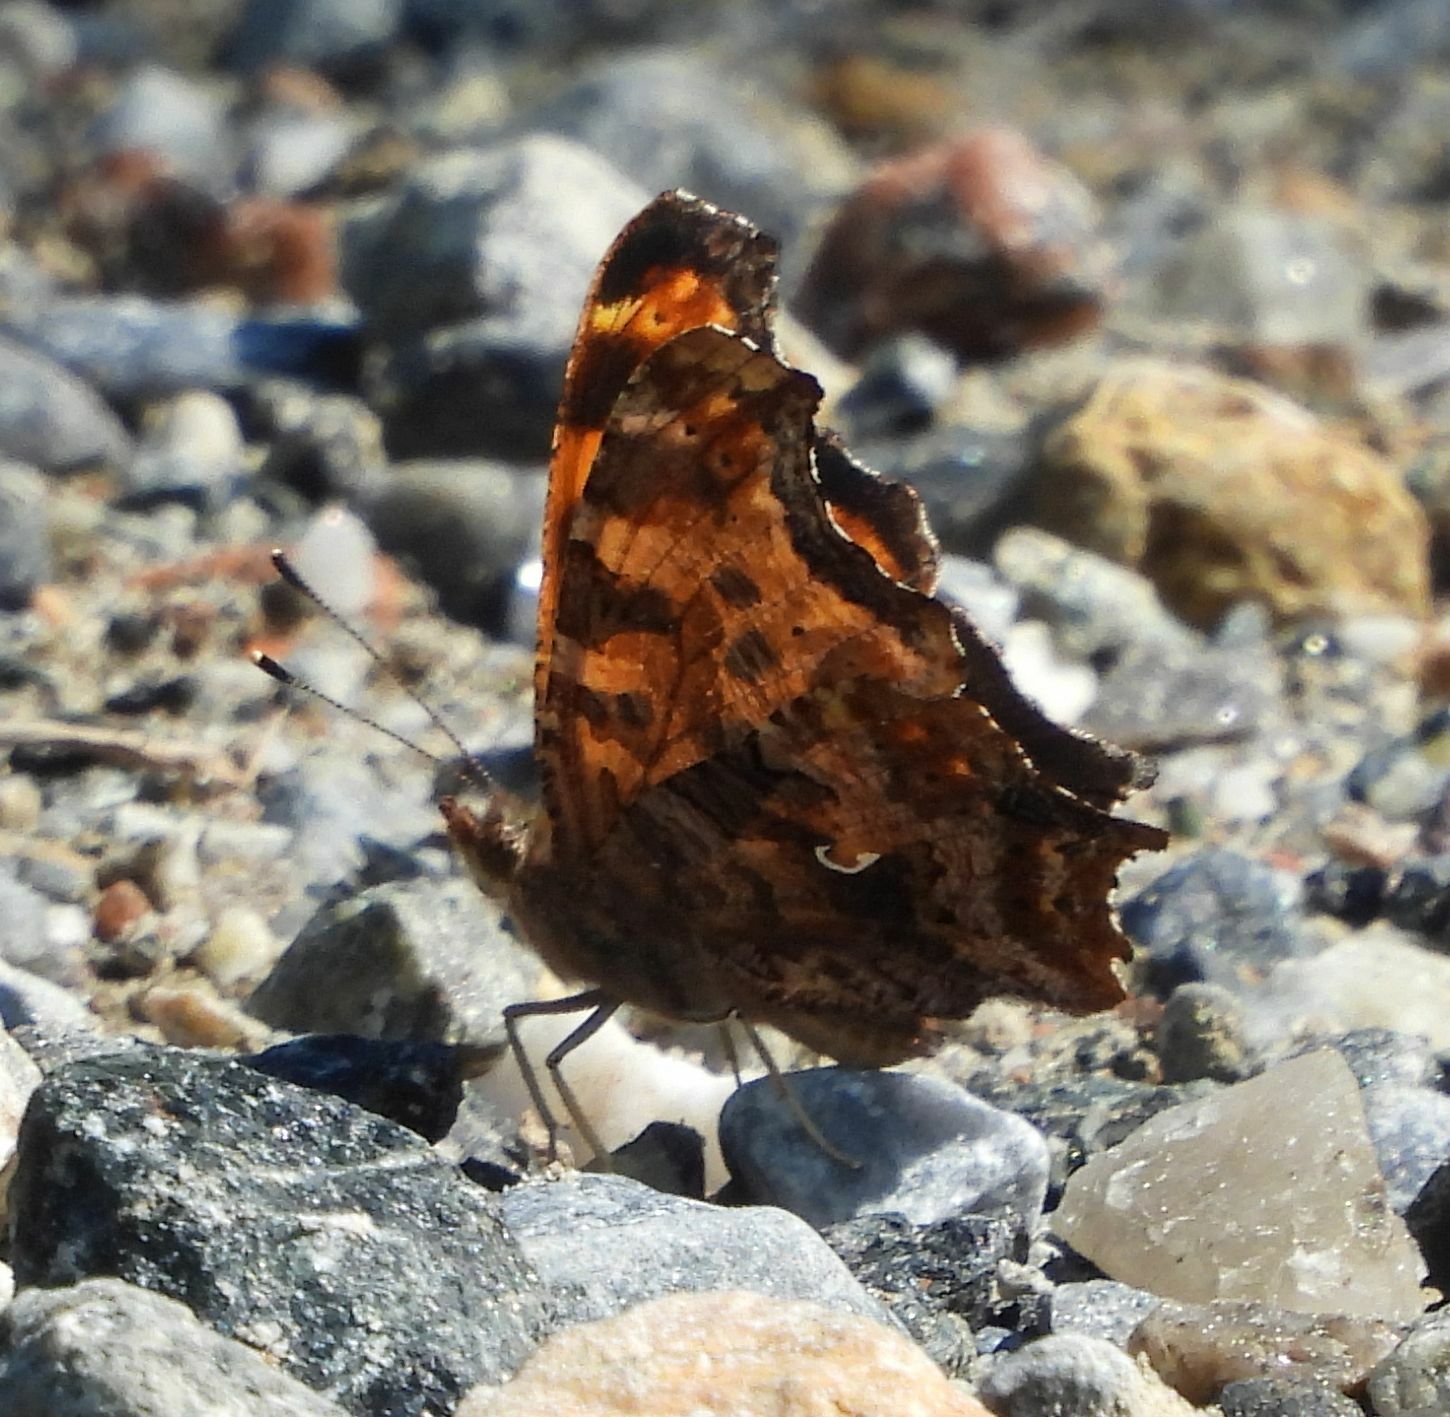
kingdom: Animalia
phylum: Arthropoda
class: Insecta
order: Lepidoptera
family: Nymphalidae
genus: Polygonia
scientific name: Polygonia comma
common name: Eastern comma
